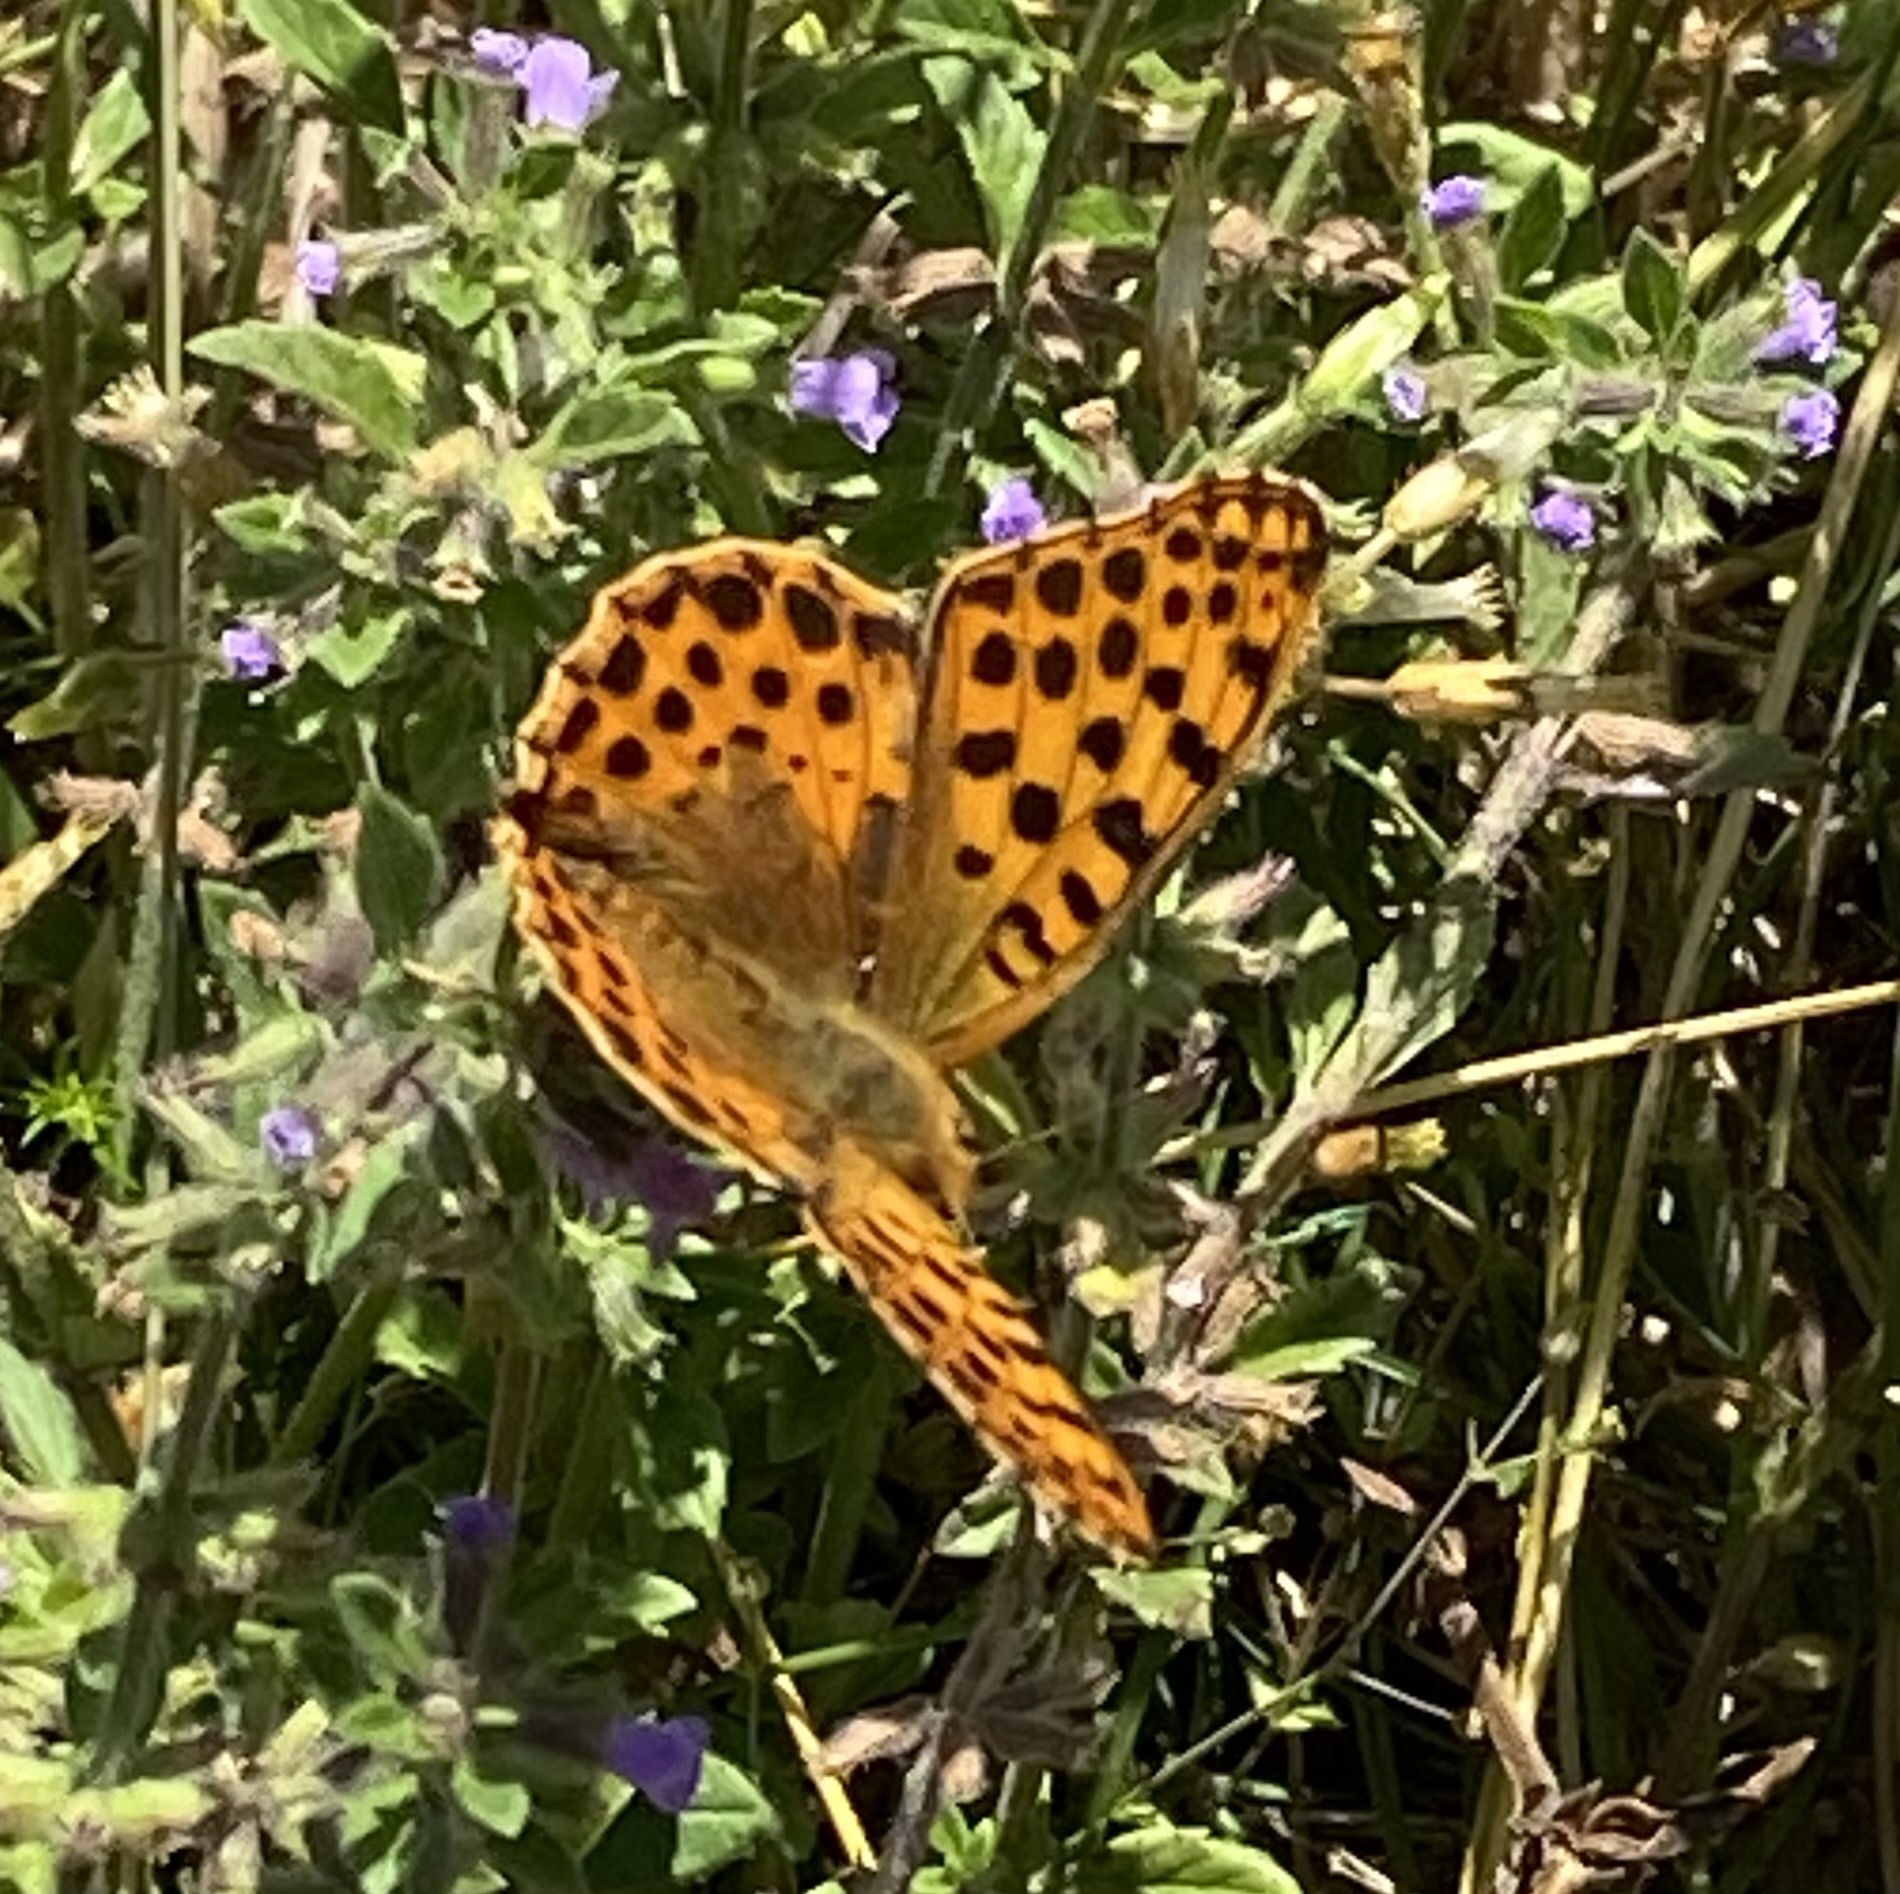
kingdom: Animalia
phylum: Arthropoda
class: Insecta
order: Lepidoptera
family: Nymphalidae
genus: Issoria
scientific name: Issoria lathonia
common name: Queen of spain fritillary
